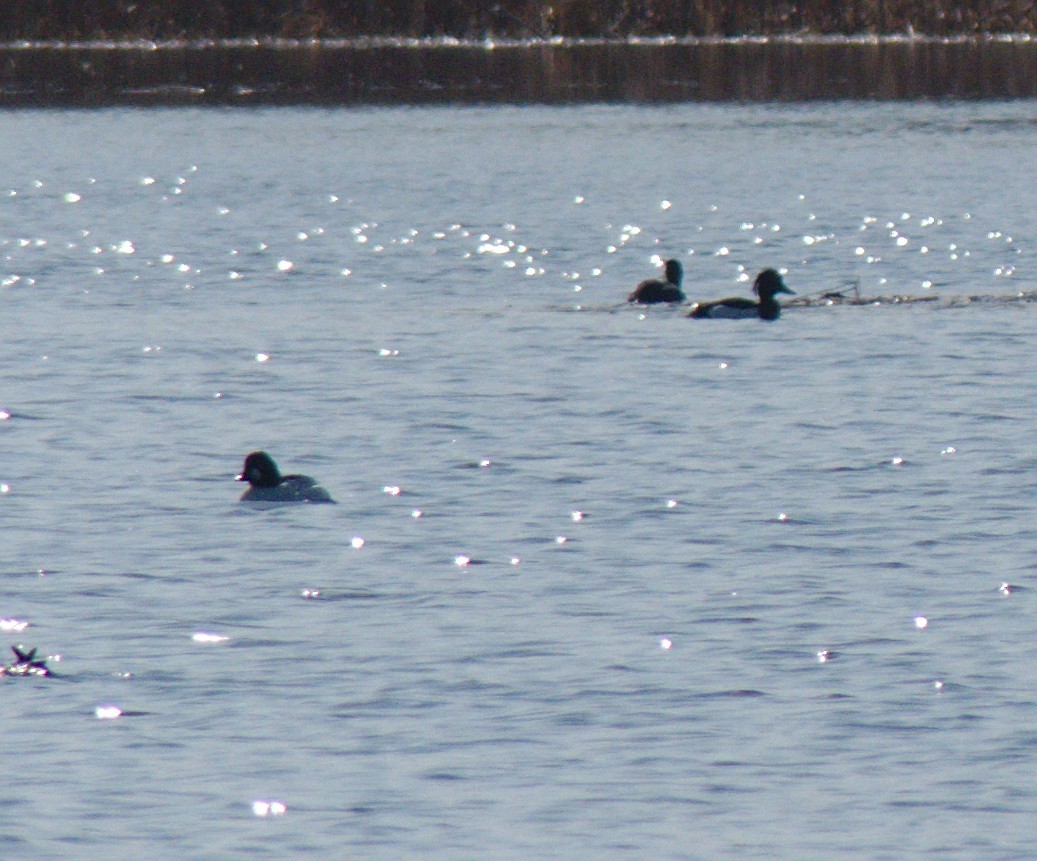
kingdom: Animalia
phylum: Chordata
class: Aves
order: Anseriformes
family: Anatidae
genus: Bucephala
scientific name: Bucephala clangula
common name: Common goldeneye
